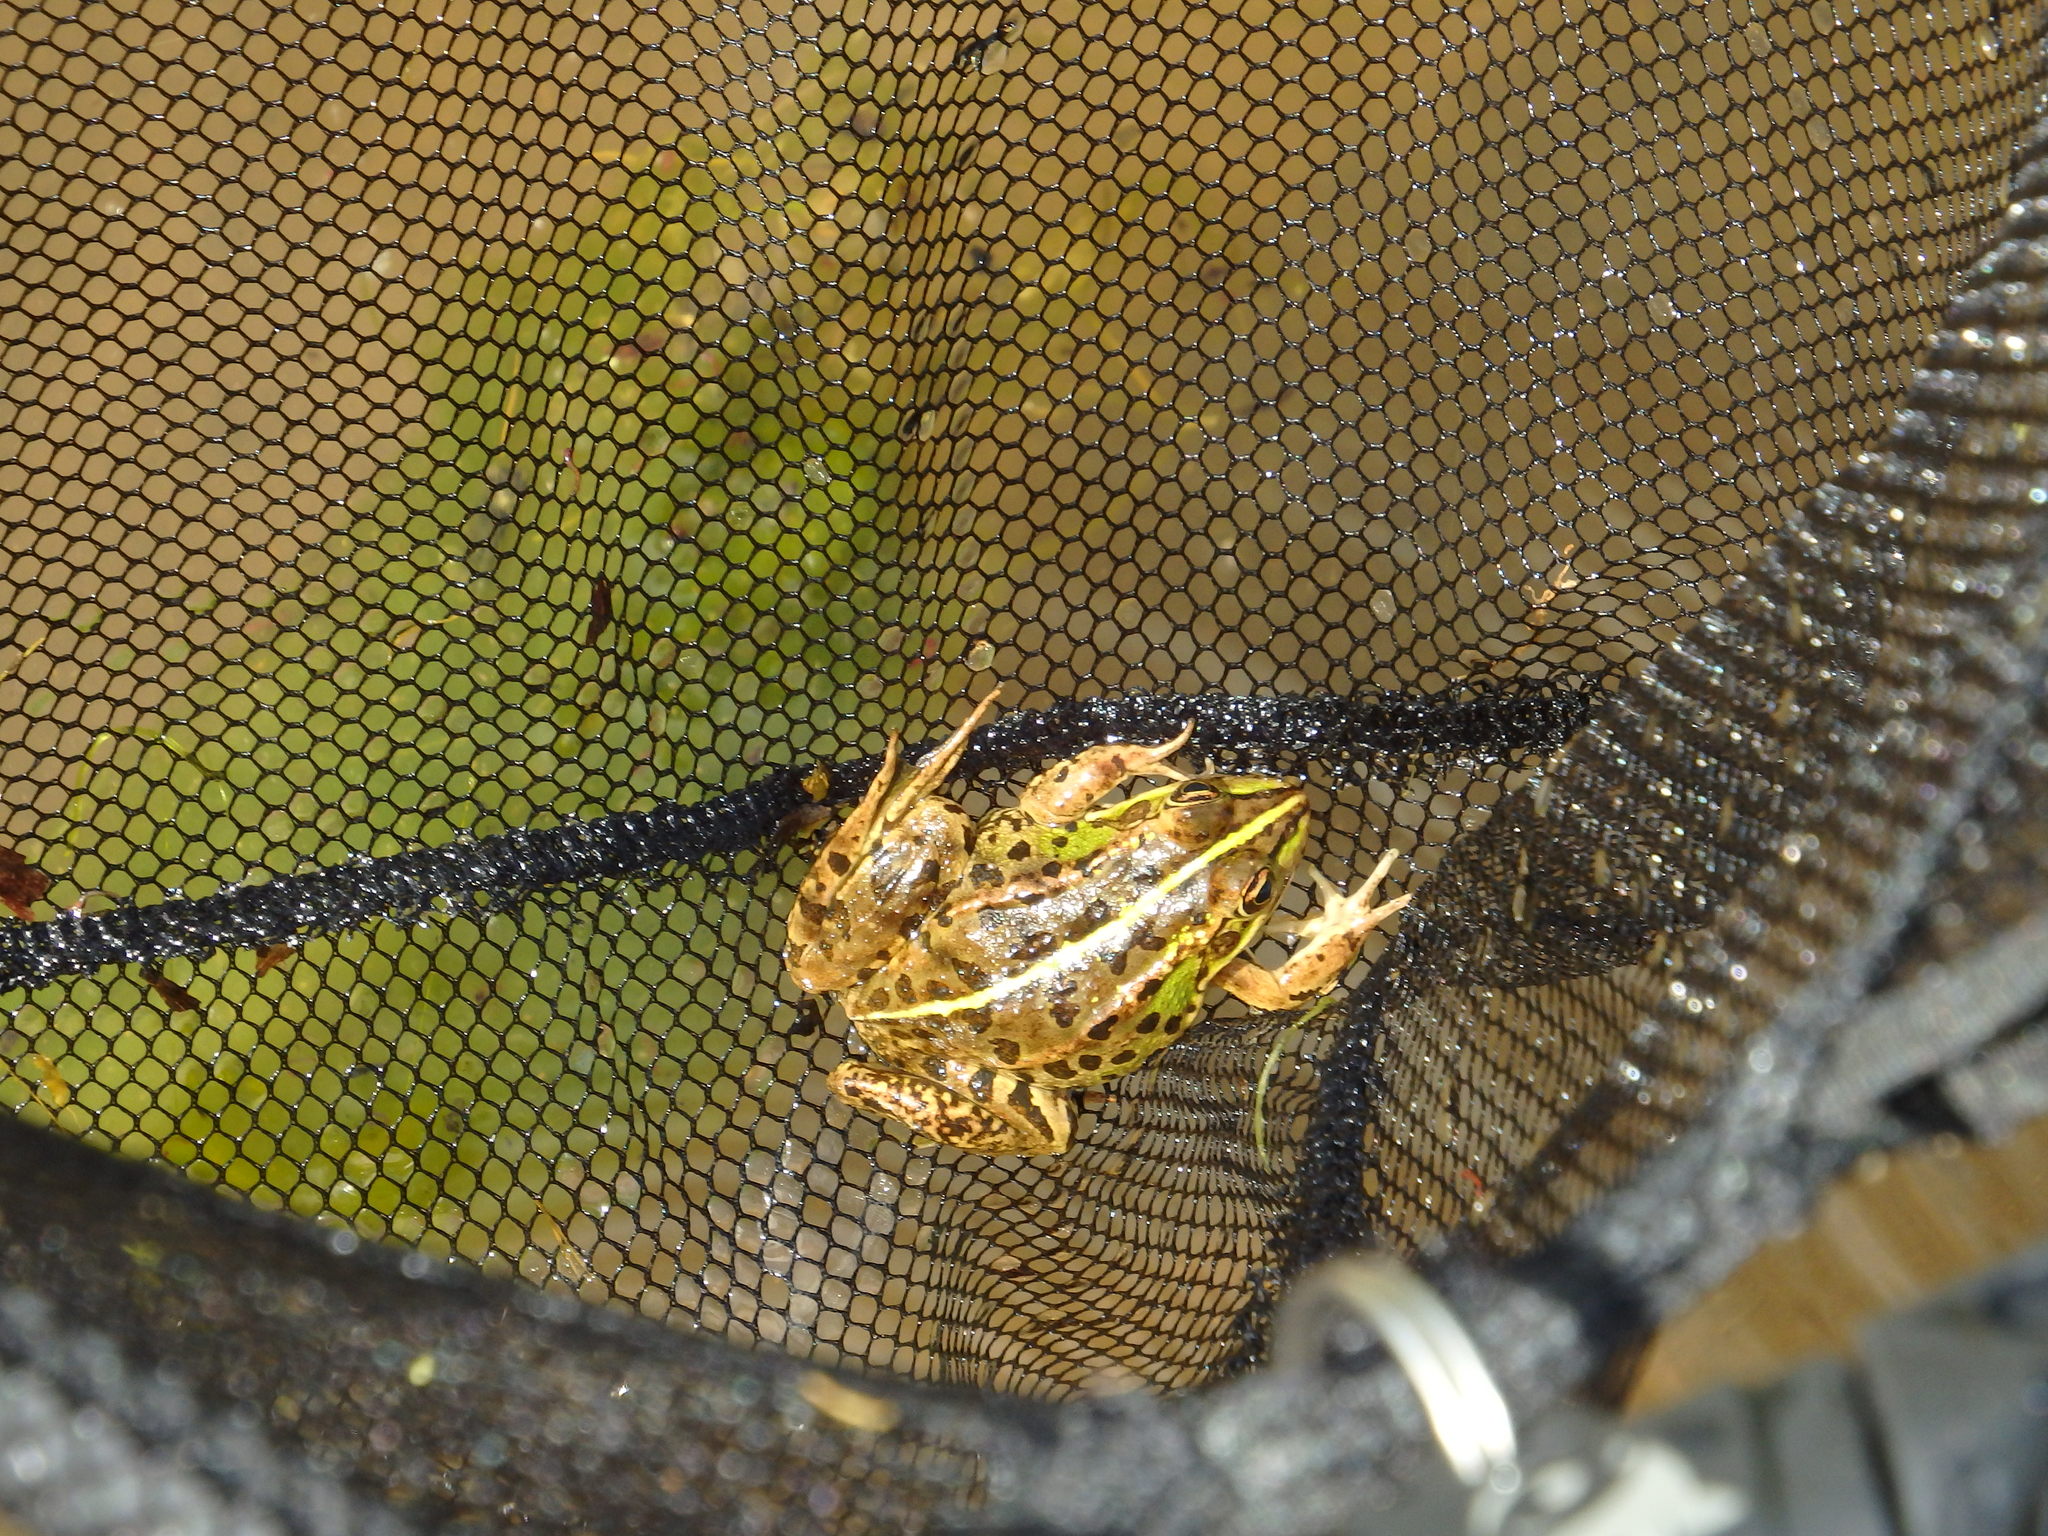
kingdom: Animalia
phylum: Chordata
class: Amphibia
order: Anura
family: Ranidae
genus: Pelophylax
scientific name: Pelophylax perezi
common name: Perez's frog
